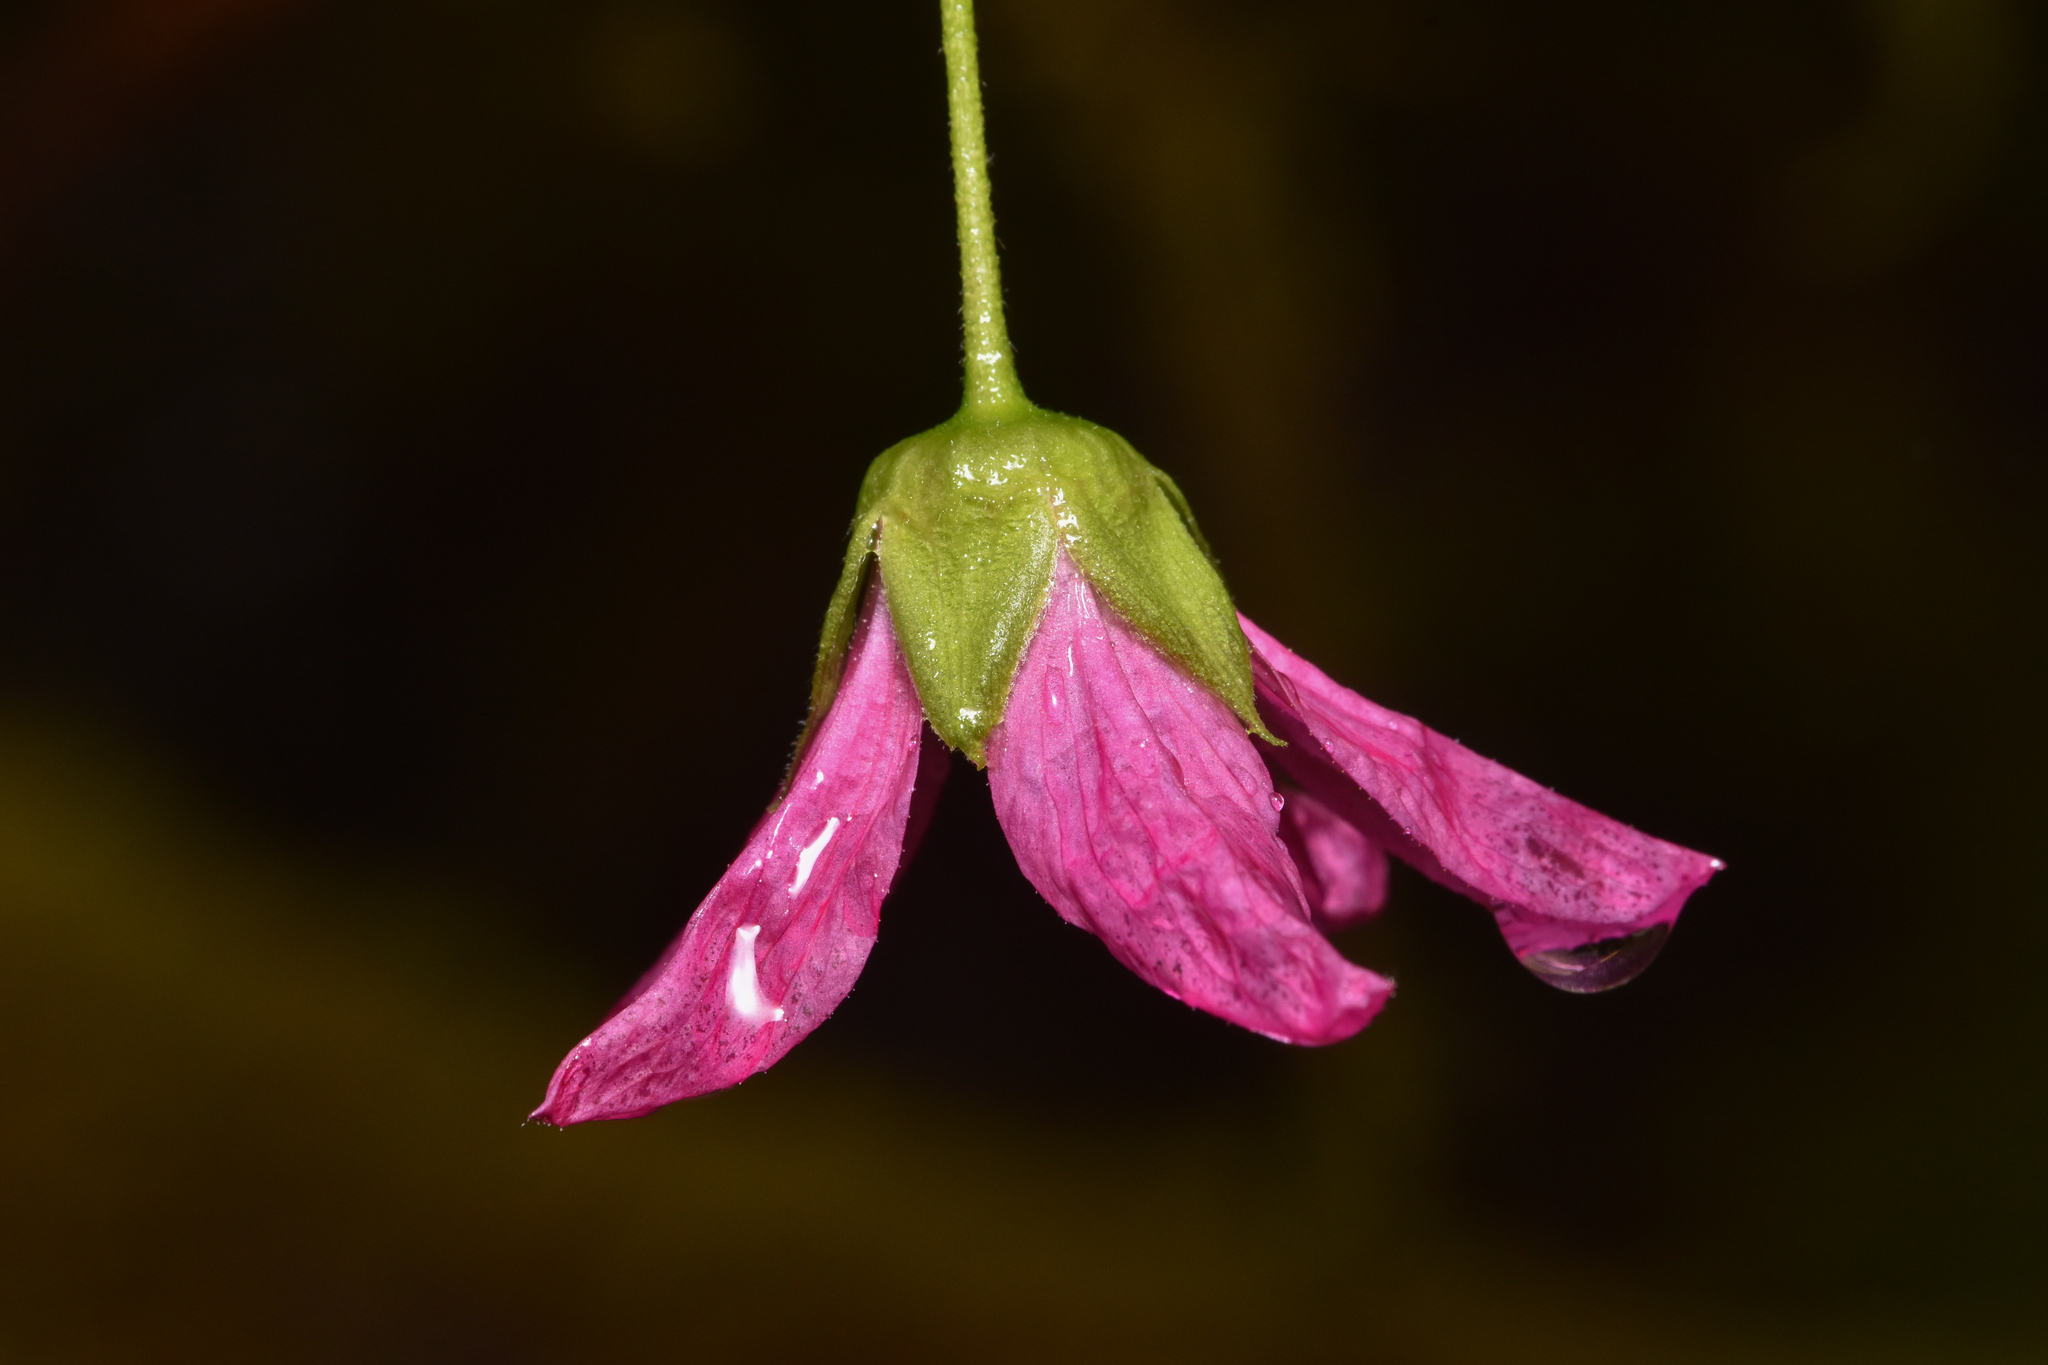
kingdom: Plantae
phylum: Tracheophyta
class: Magnoliopsida
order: Rosales
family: Rosaceae
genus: Rubus
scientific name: Rubus spectabilis
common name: Salmonberry
